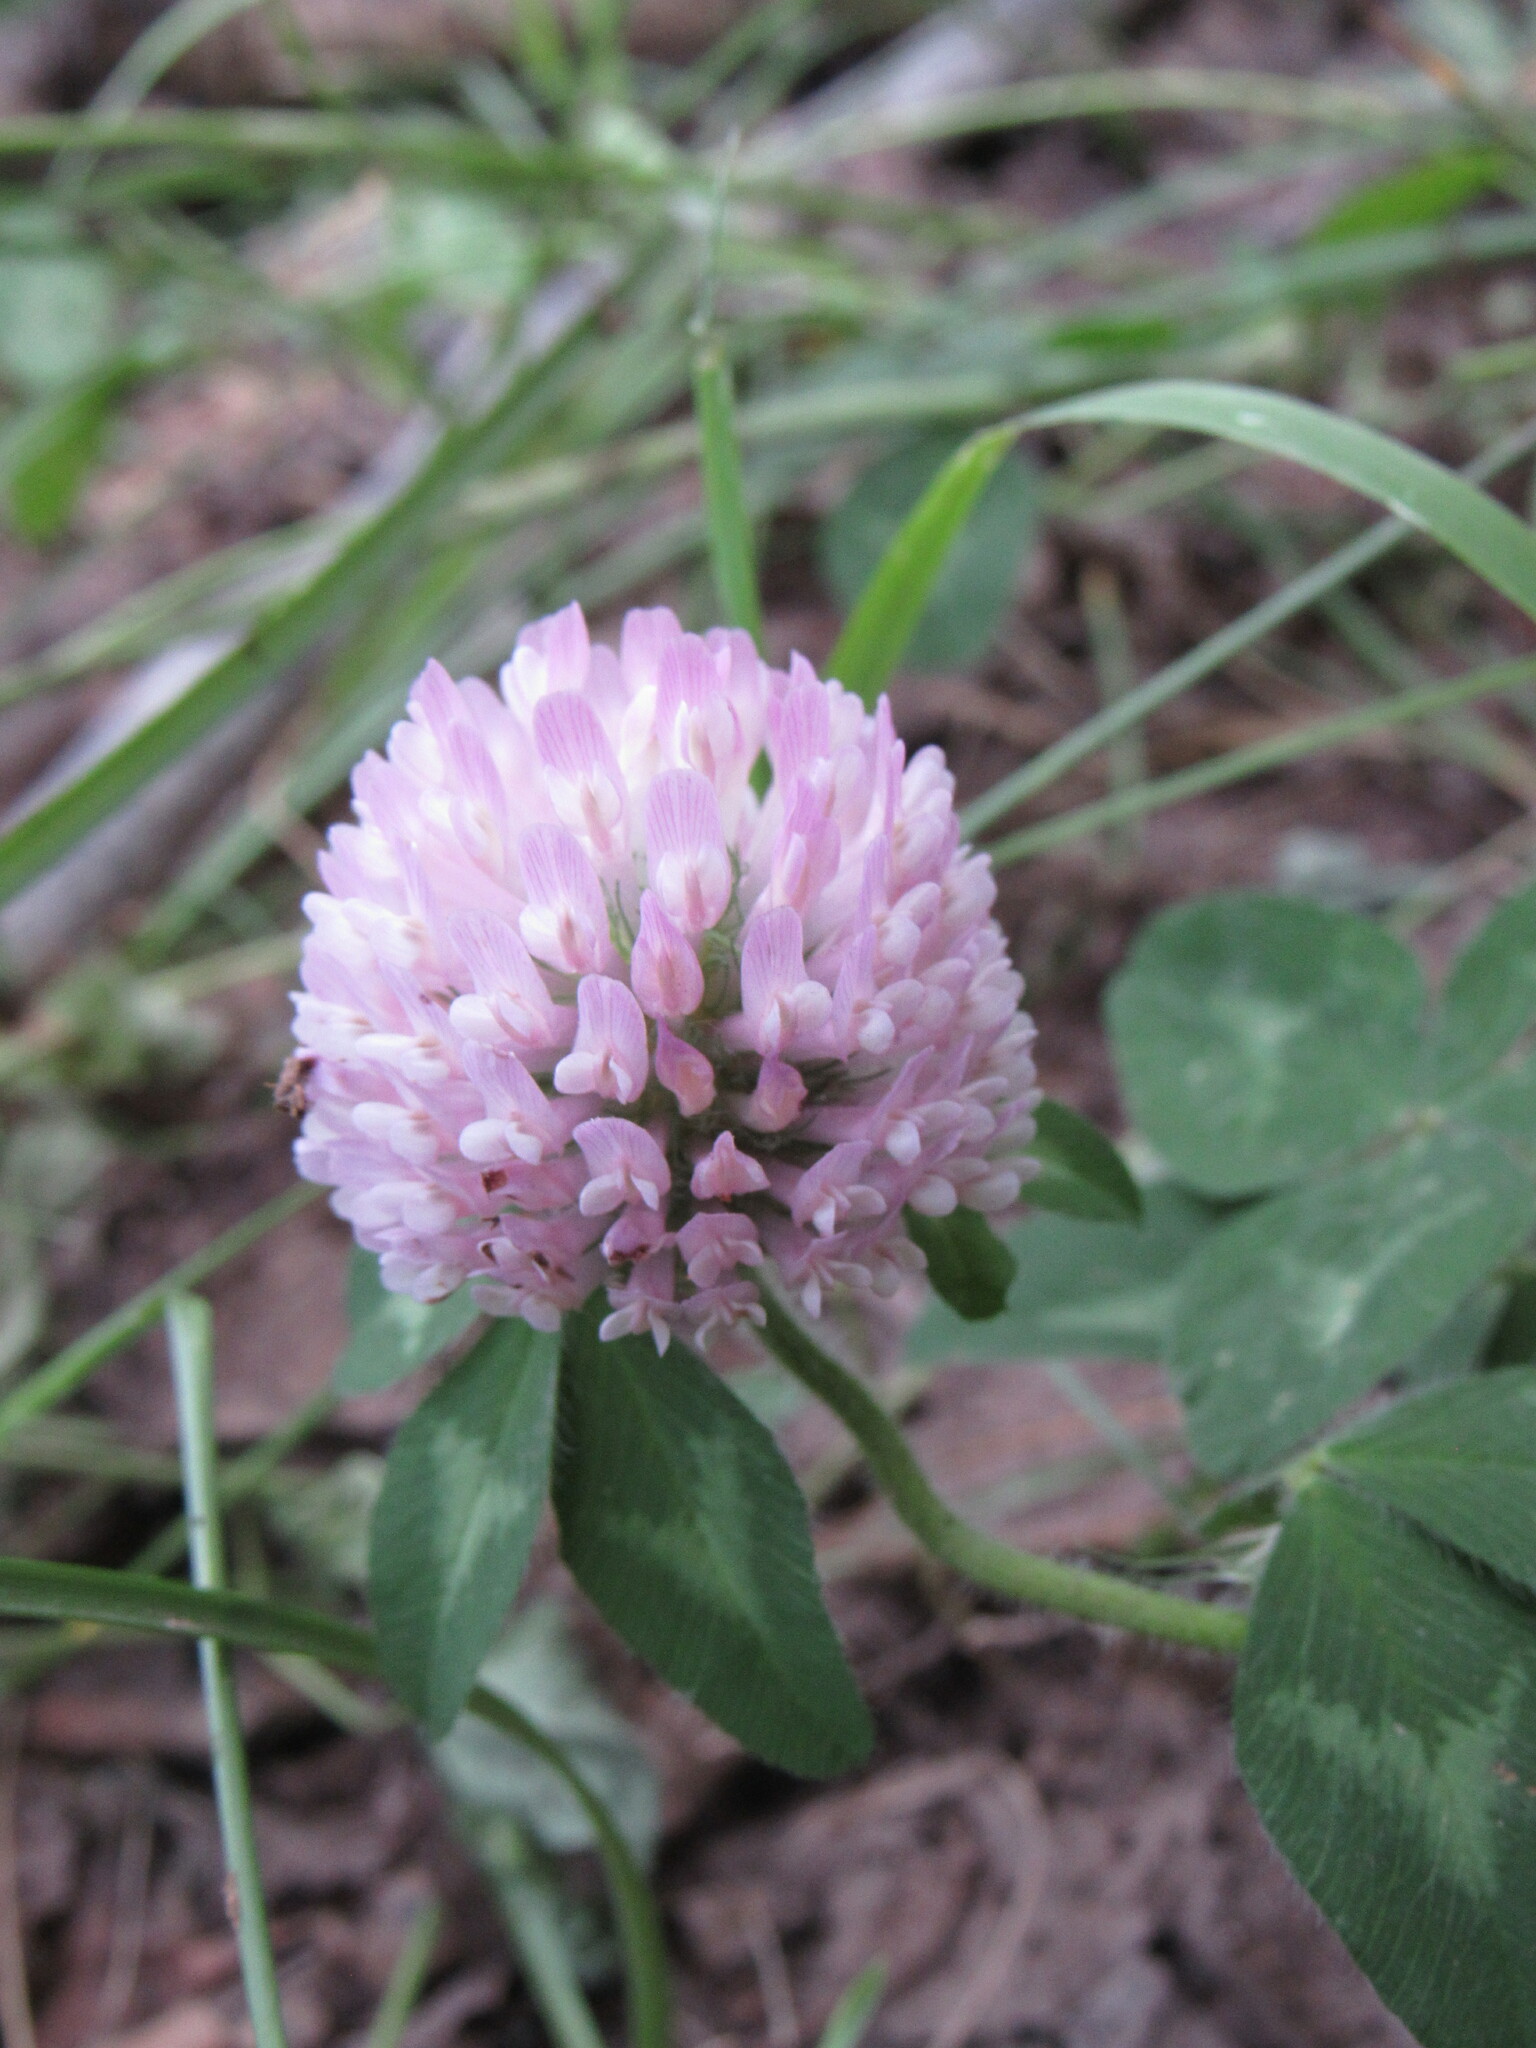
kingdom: Plantae
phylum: Tracheophyta
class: Magnoliopsida
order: Fabales
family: Fabaceae
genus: Trifolium
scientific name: Trifolium pratense
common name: Red clover
